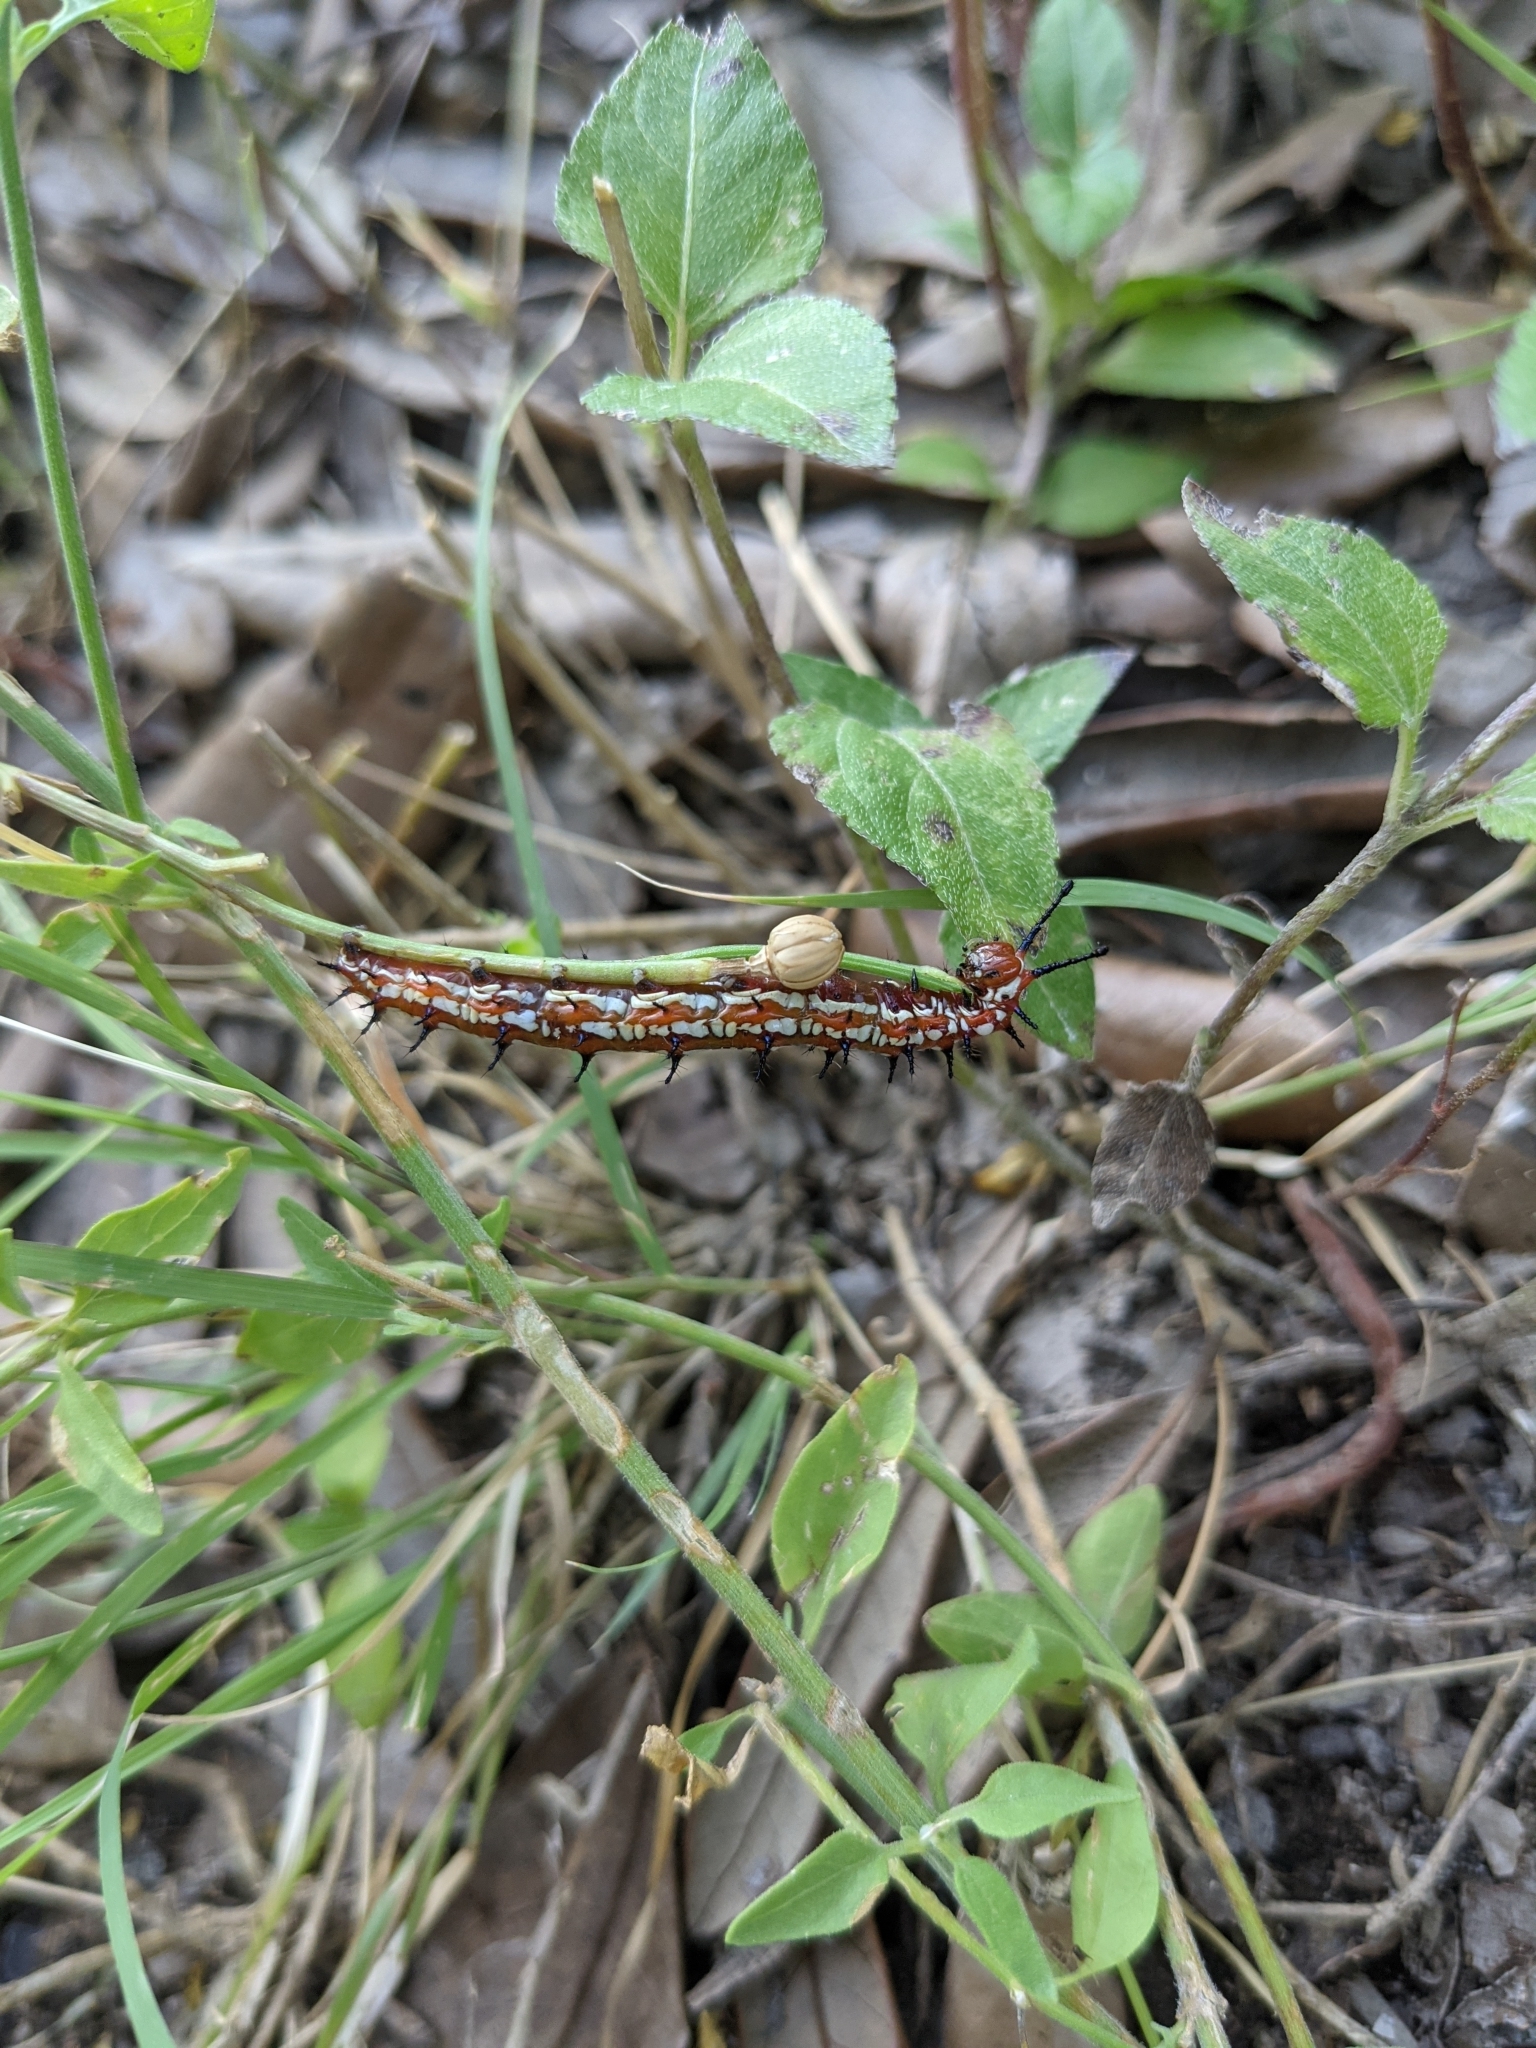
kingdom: Animalia
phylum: Arthropoda
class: Insecta
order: Lepidoptera
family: Nymphalidae
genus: Euptoieta
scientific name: Euptoieta claudia
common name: Variegated fritillary
